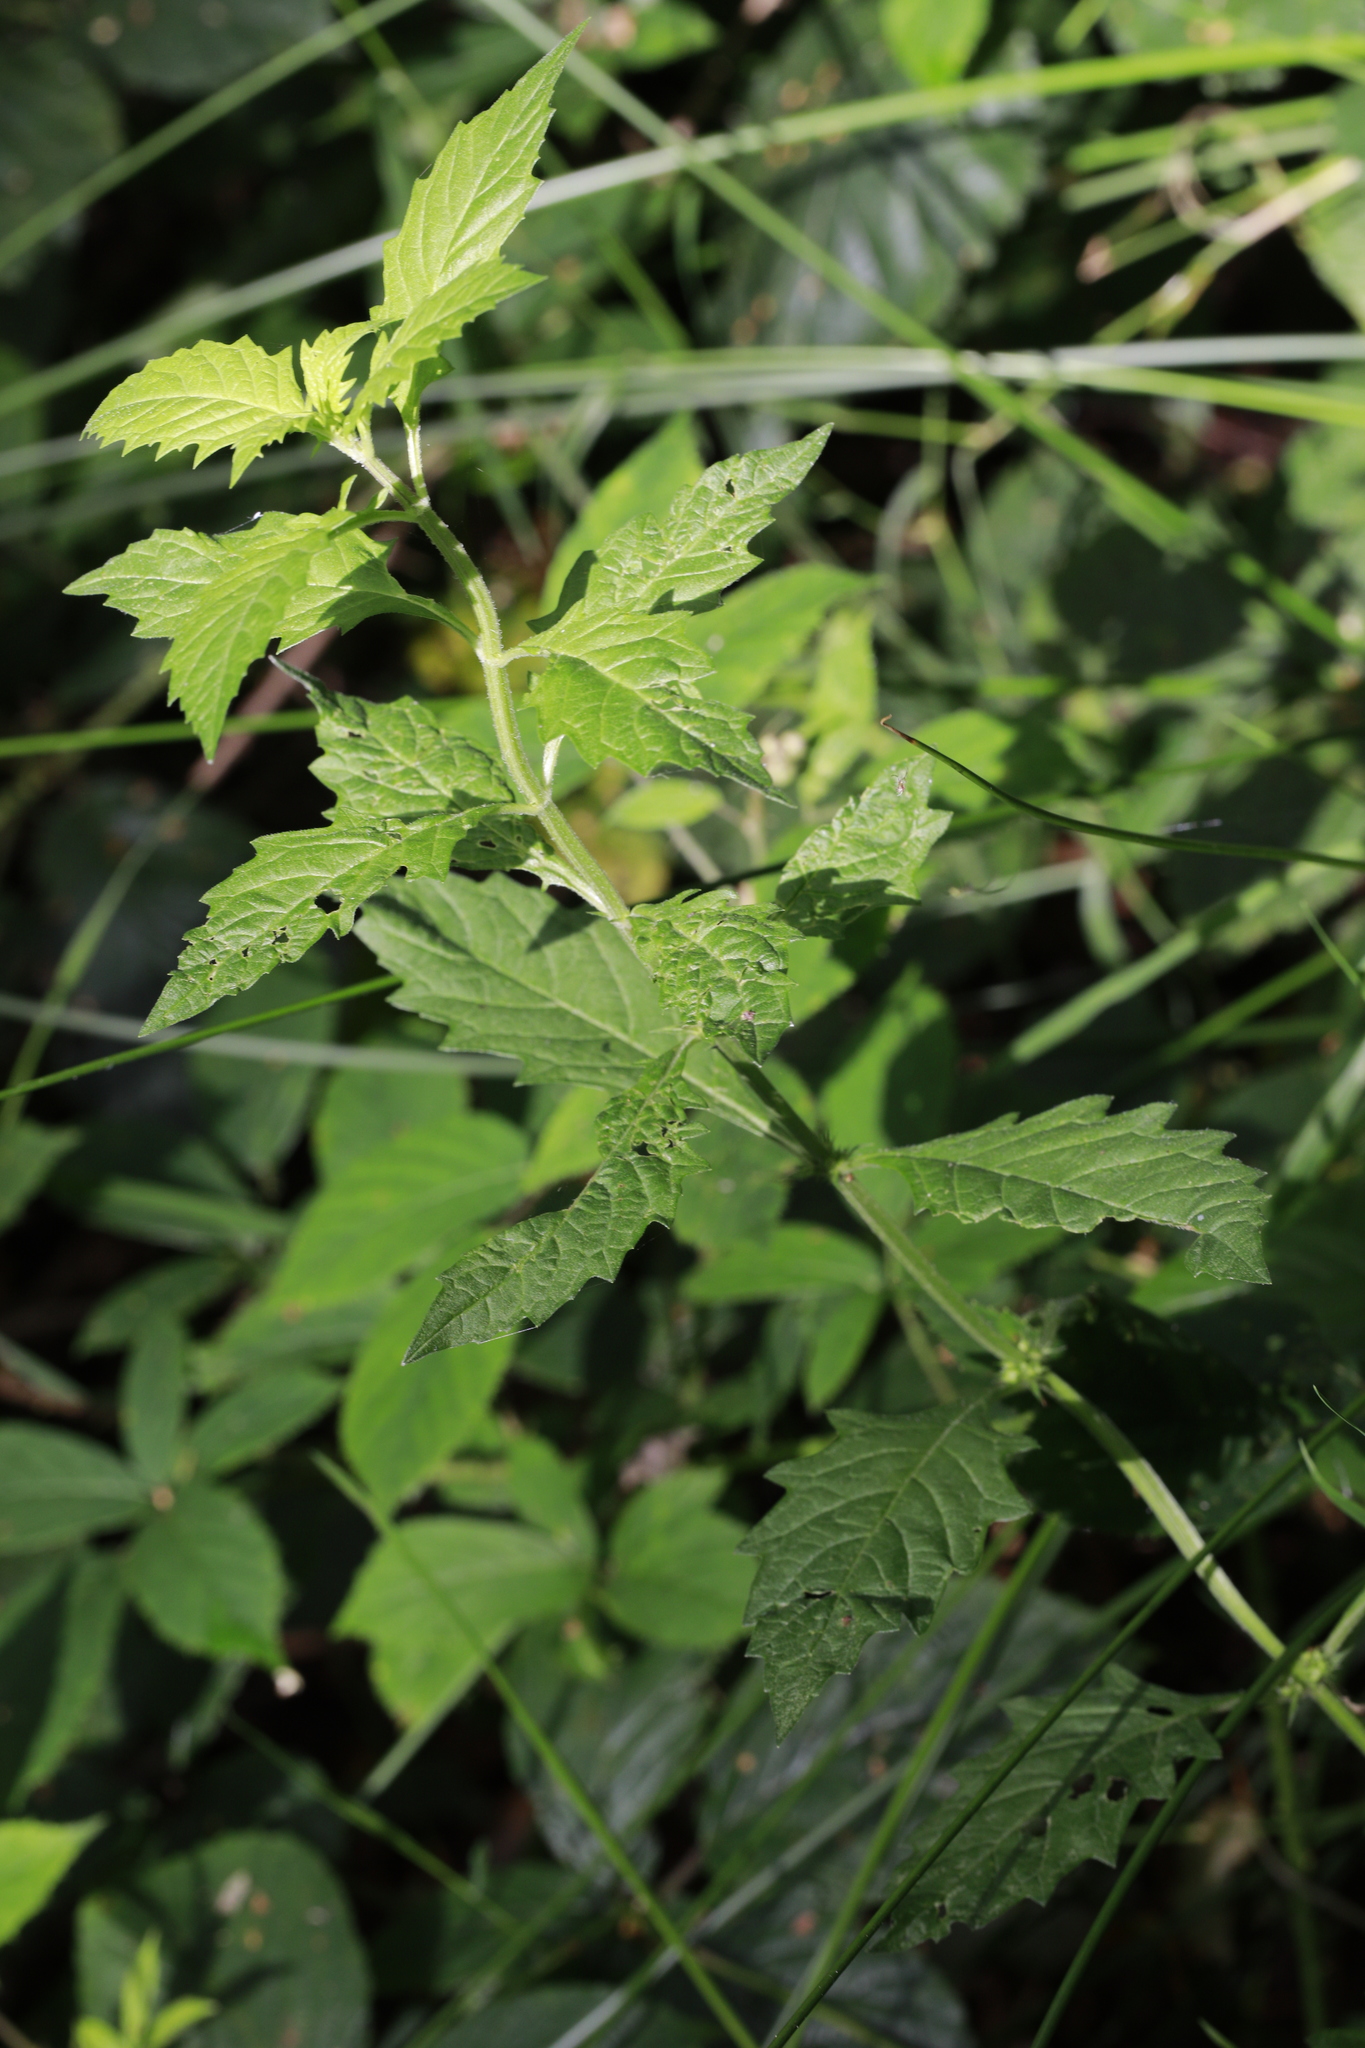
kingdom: Plantae
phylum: Tracheophyta
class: Magnoliopsida
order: Lamiales
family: Lamiaceae
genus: Lycopus
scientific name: Lycopus europaeus
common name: European bugleweed
